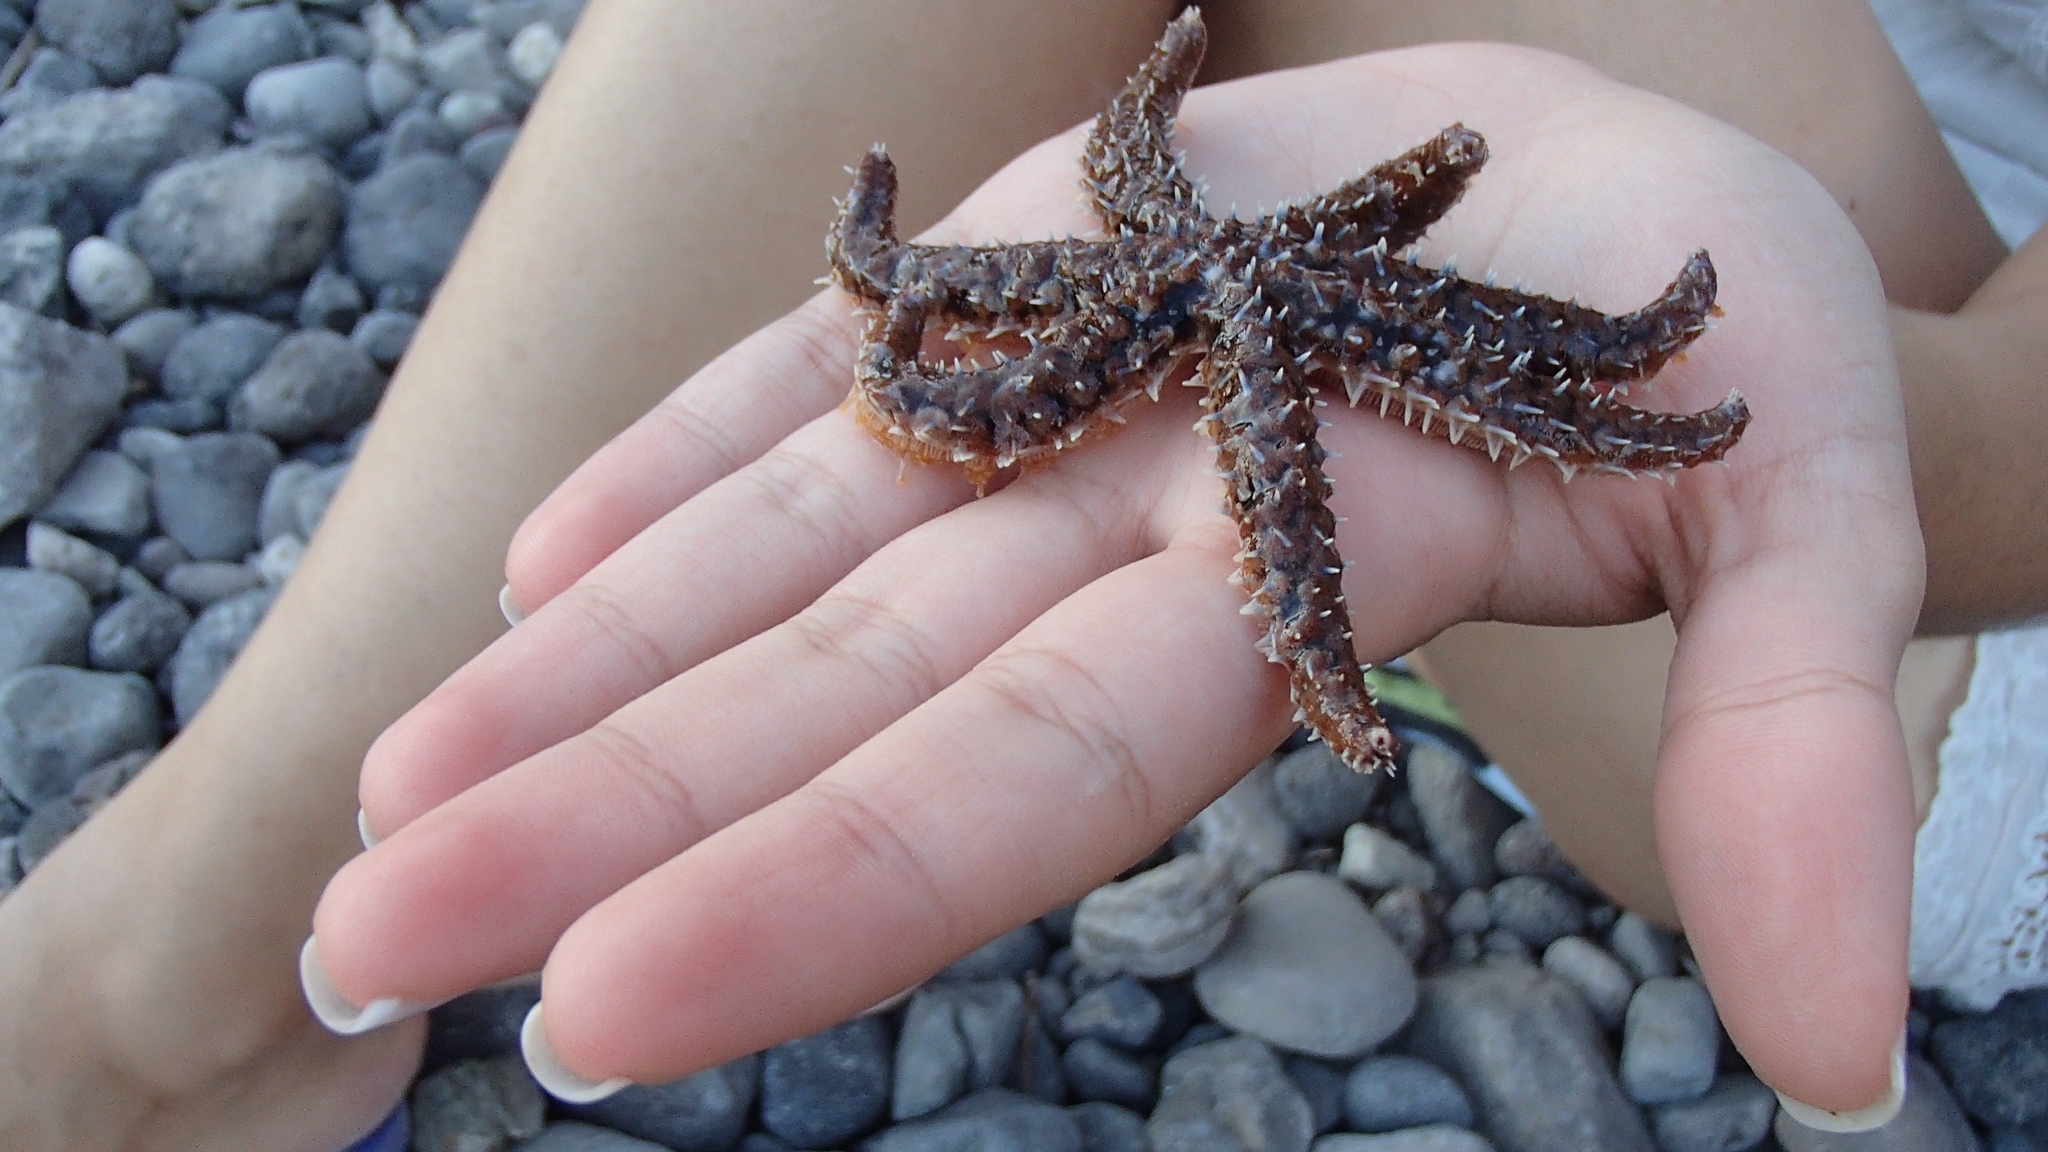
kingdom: Animalia
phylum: Echinodermata
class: Asteroidea
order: Forcipulatida
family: Asteriidae
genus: Coscinasterias
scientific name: Coscinasterias tenuispina
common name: Blue spiny starfish
